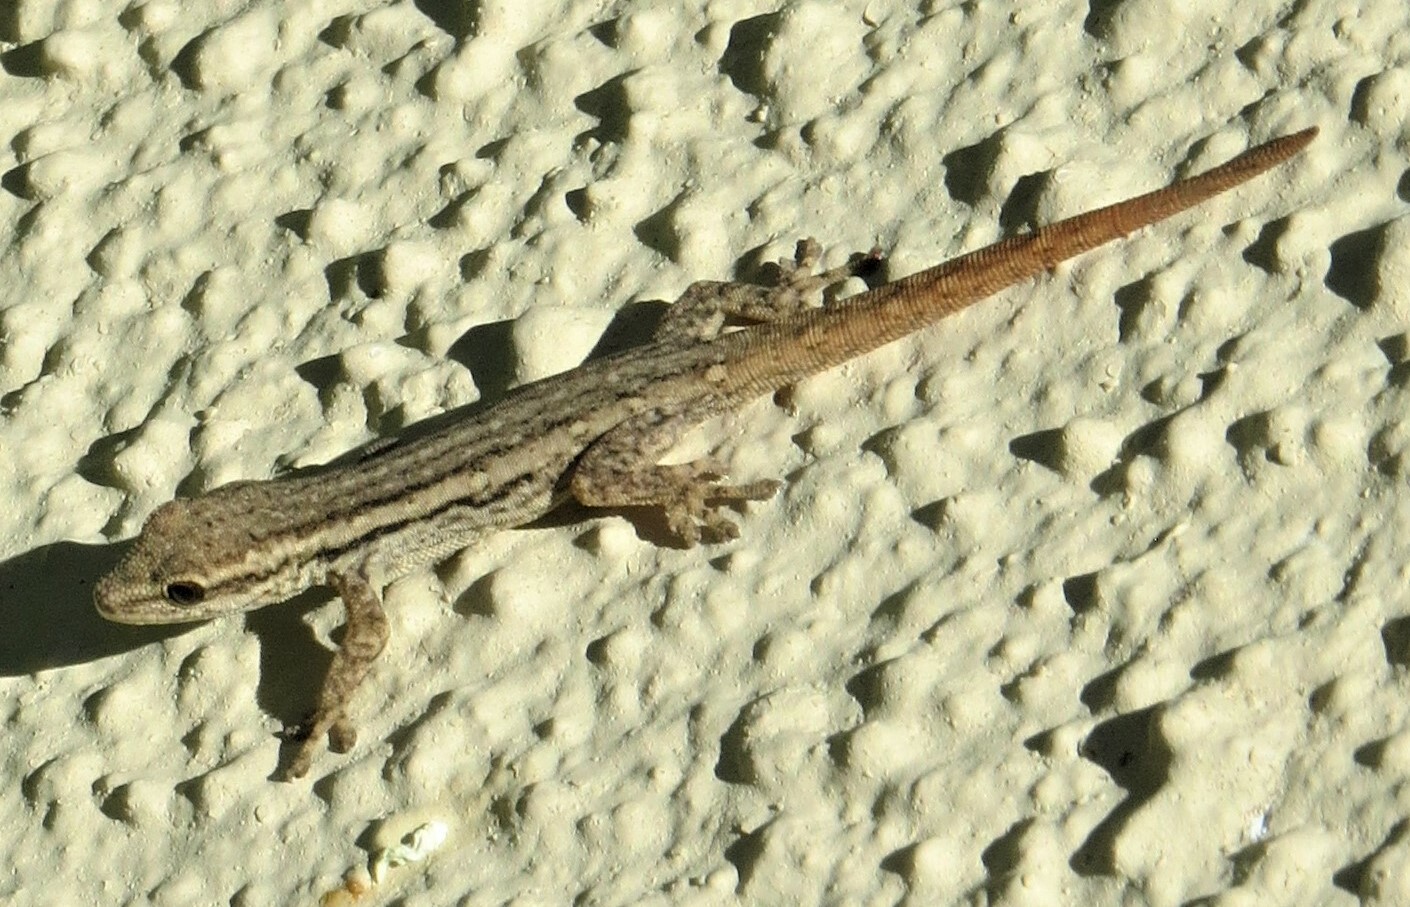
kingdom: Animalia
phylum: Chordata
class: Squamata
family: Gekkonidae
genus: Lygodactylus
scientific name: Lygodactylus capensis
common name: Cape dwarf gecko
